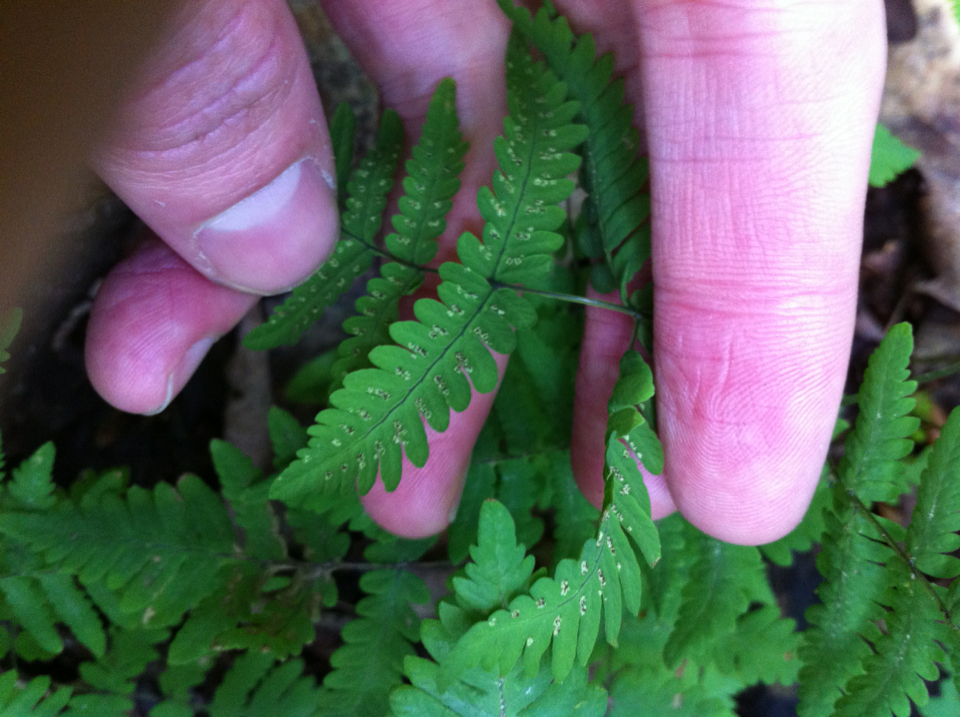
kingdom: Plantae
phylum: Tracheophyta
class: Polypodiopsida
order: Polypodiales
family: Cystopteridaceae
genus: Gymnocarpium
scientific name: Gymnocarpium dryopteris
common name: Oak fern
